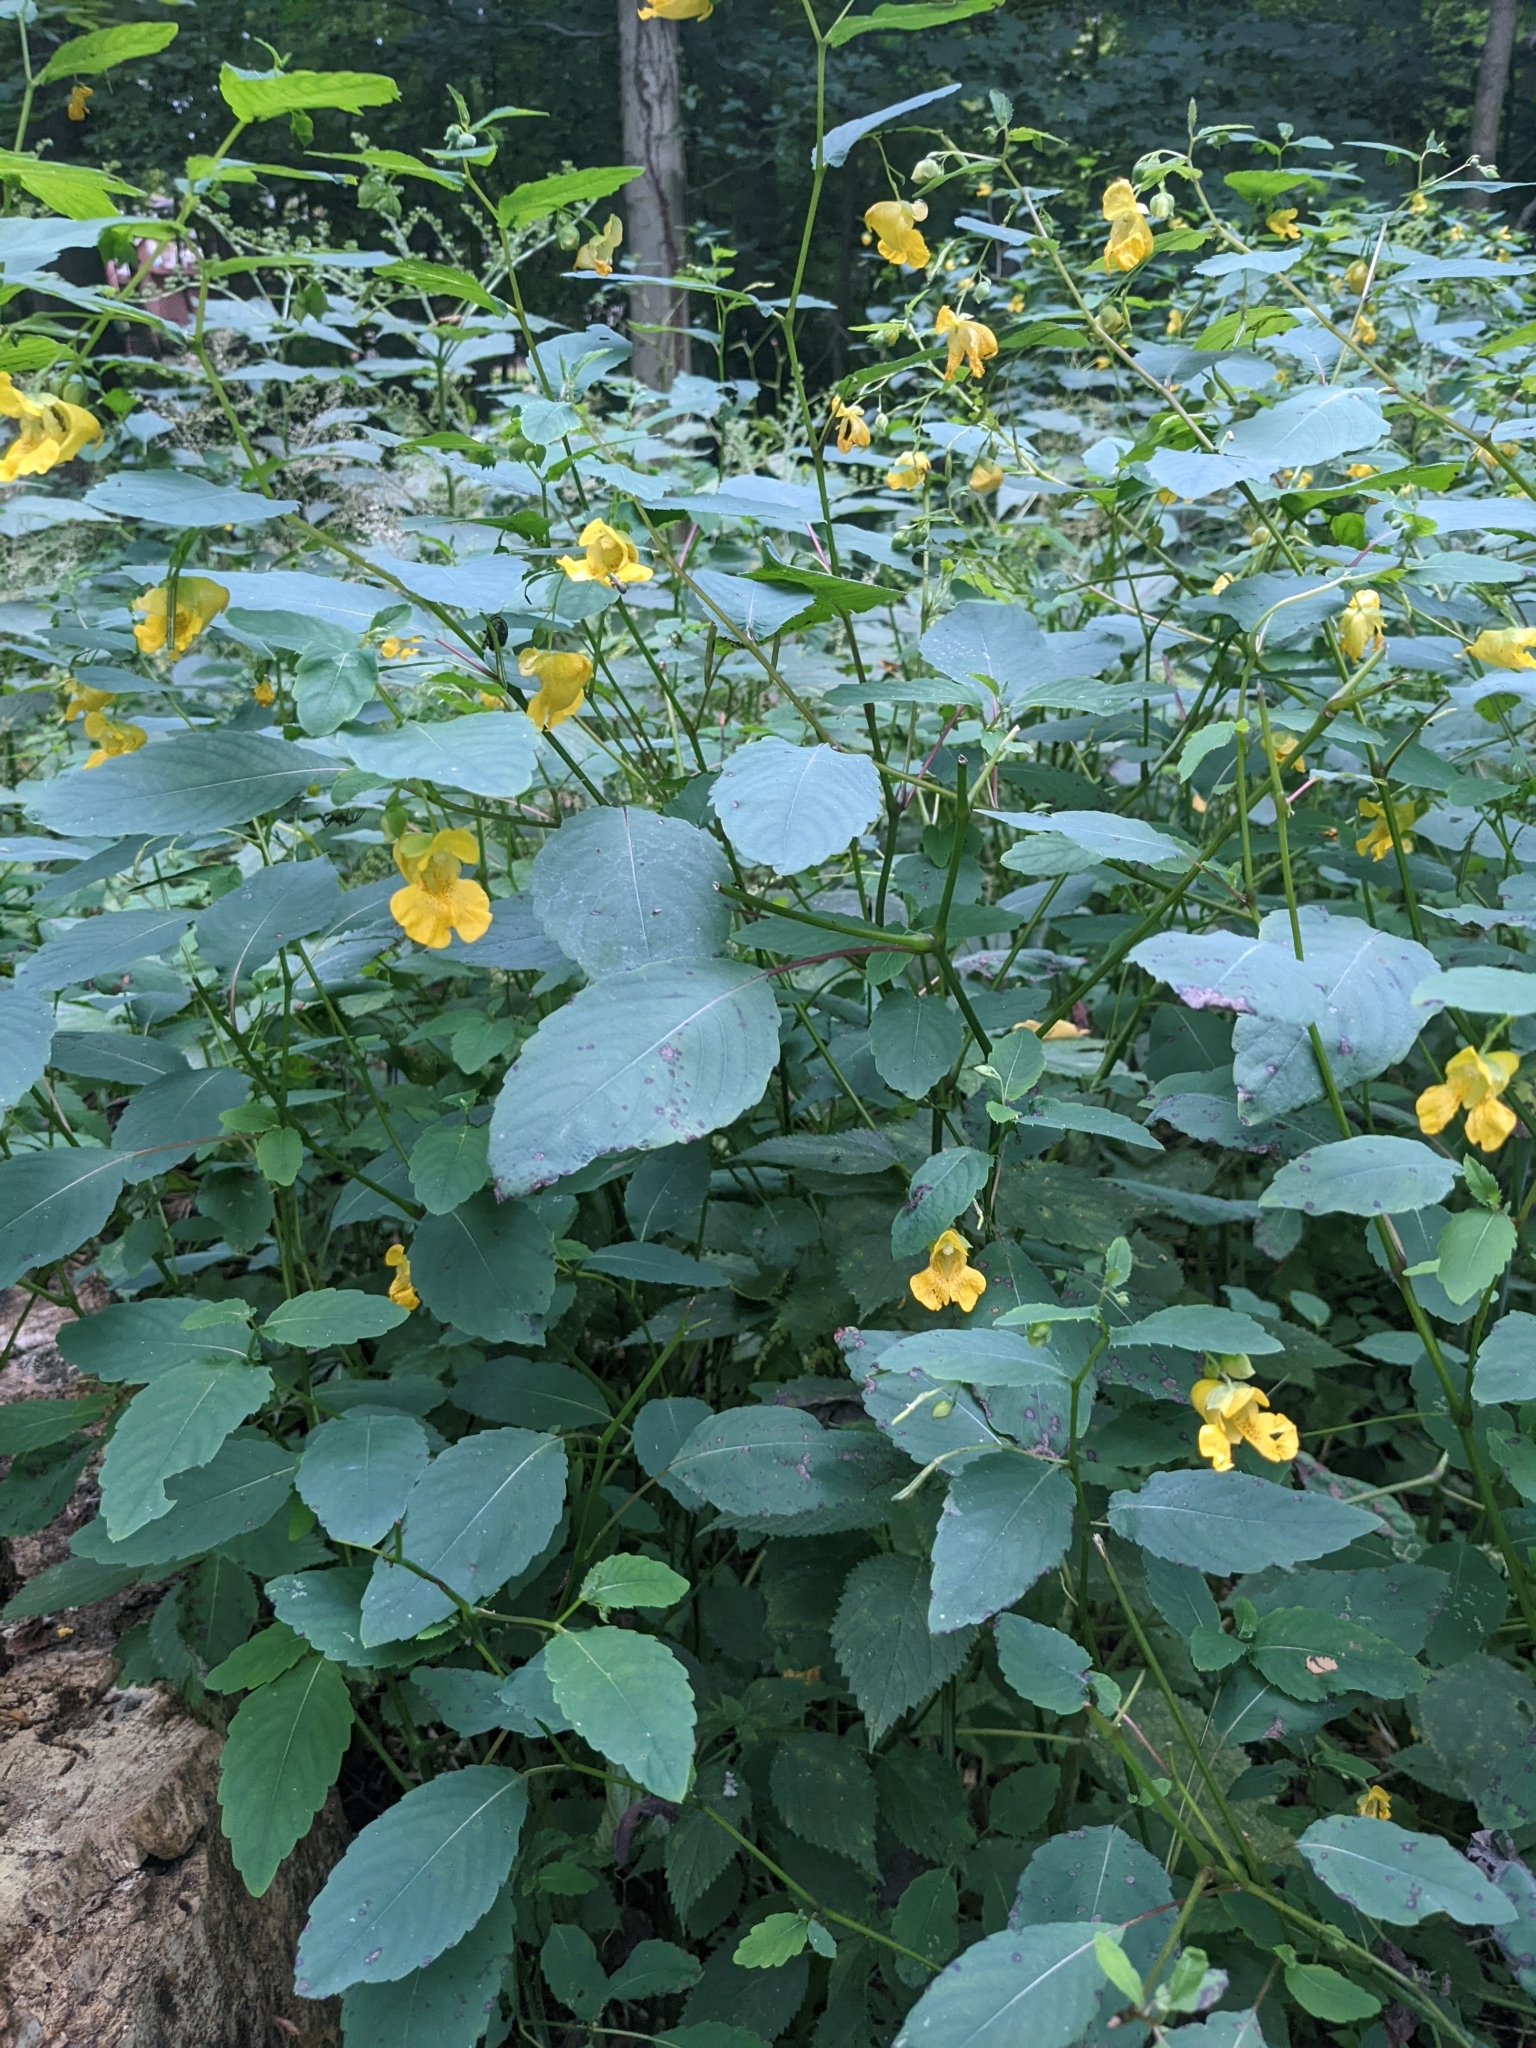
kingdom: Plantae
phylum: Tracheophyta
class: Magnoliopsida
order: Ericales
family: Balsaminaceae
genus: Impatiens
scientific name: Impatiens pallida
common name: Pale snapweed
